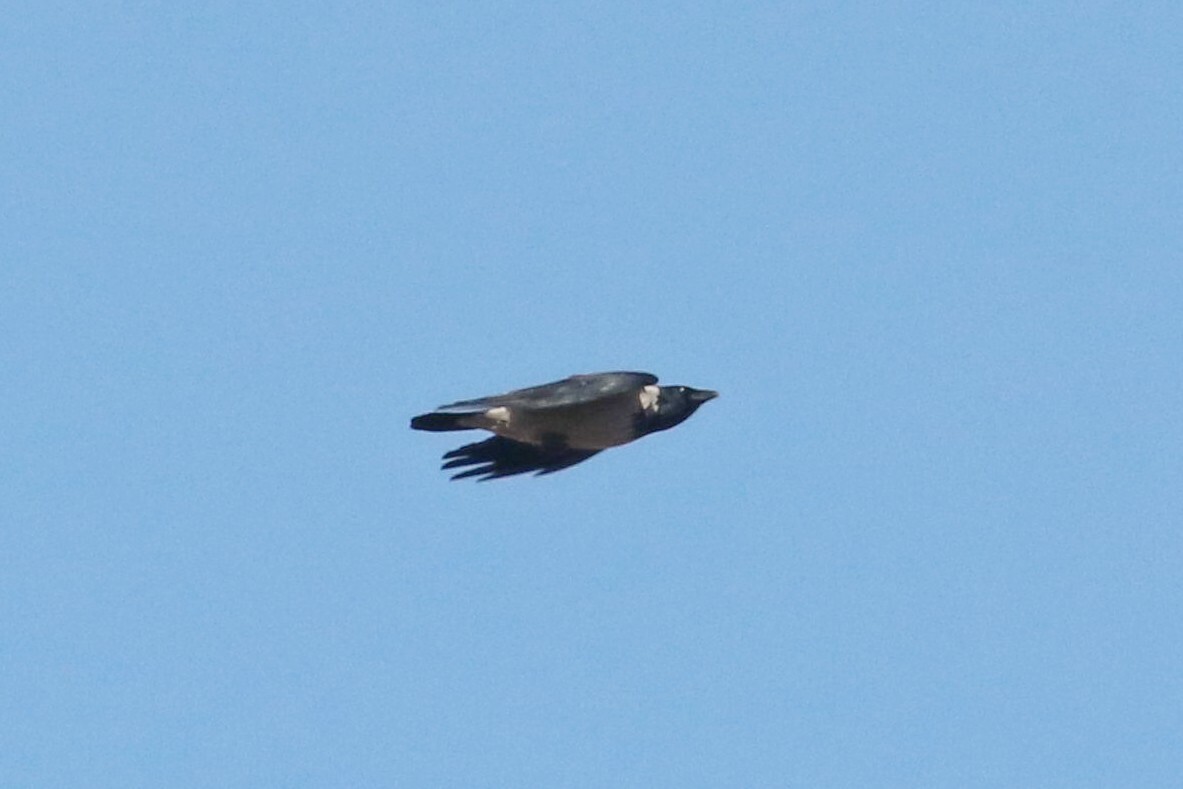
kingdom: Animalia
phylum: Chordata
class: Aves
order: Passeriformes
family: Corvidae
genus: Corvus
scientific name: Corvus cornix
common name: Hooded crow
